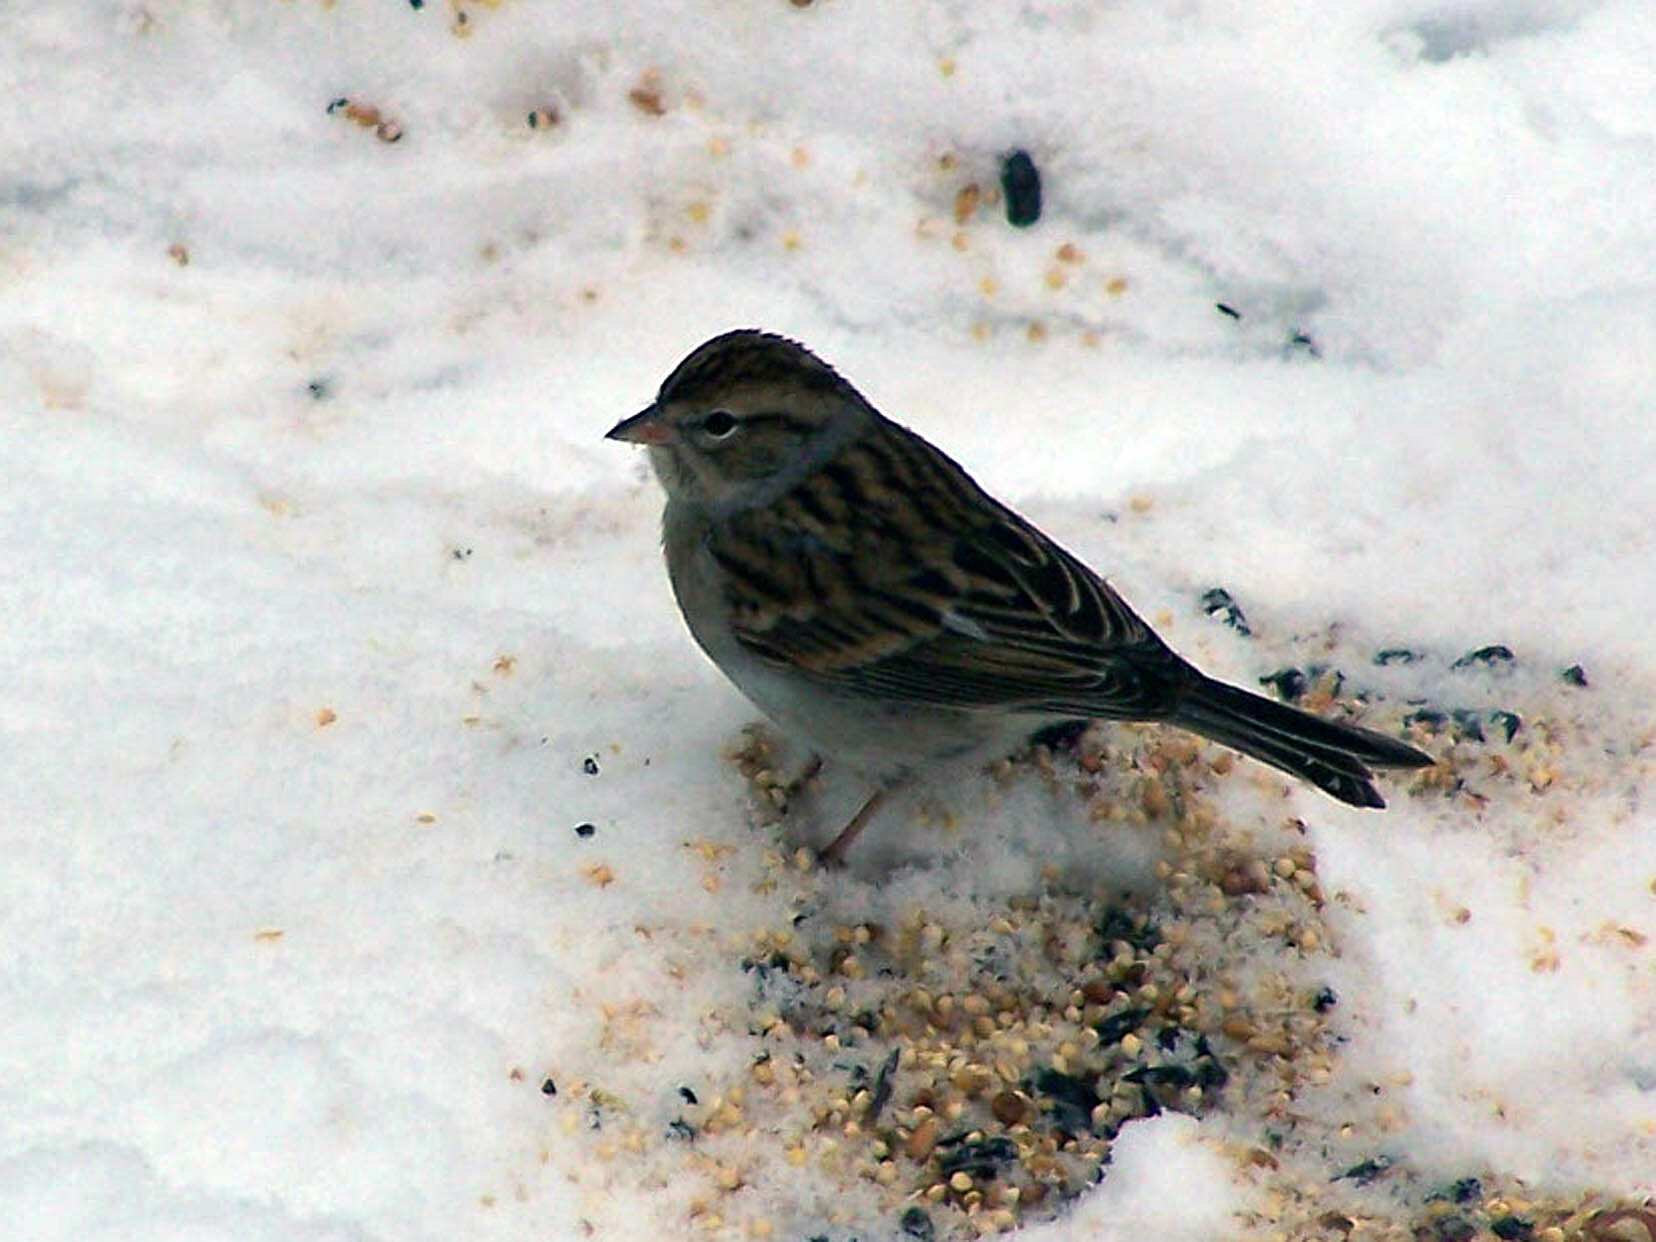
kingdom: Animalia
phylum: Chordata
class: Aves
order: Passeriformes
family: Passerellidae
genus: Spizella
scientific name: Spizella passerina
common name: Chipping sparrow
